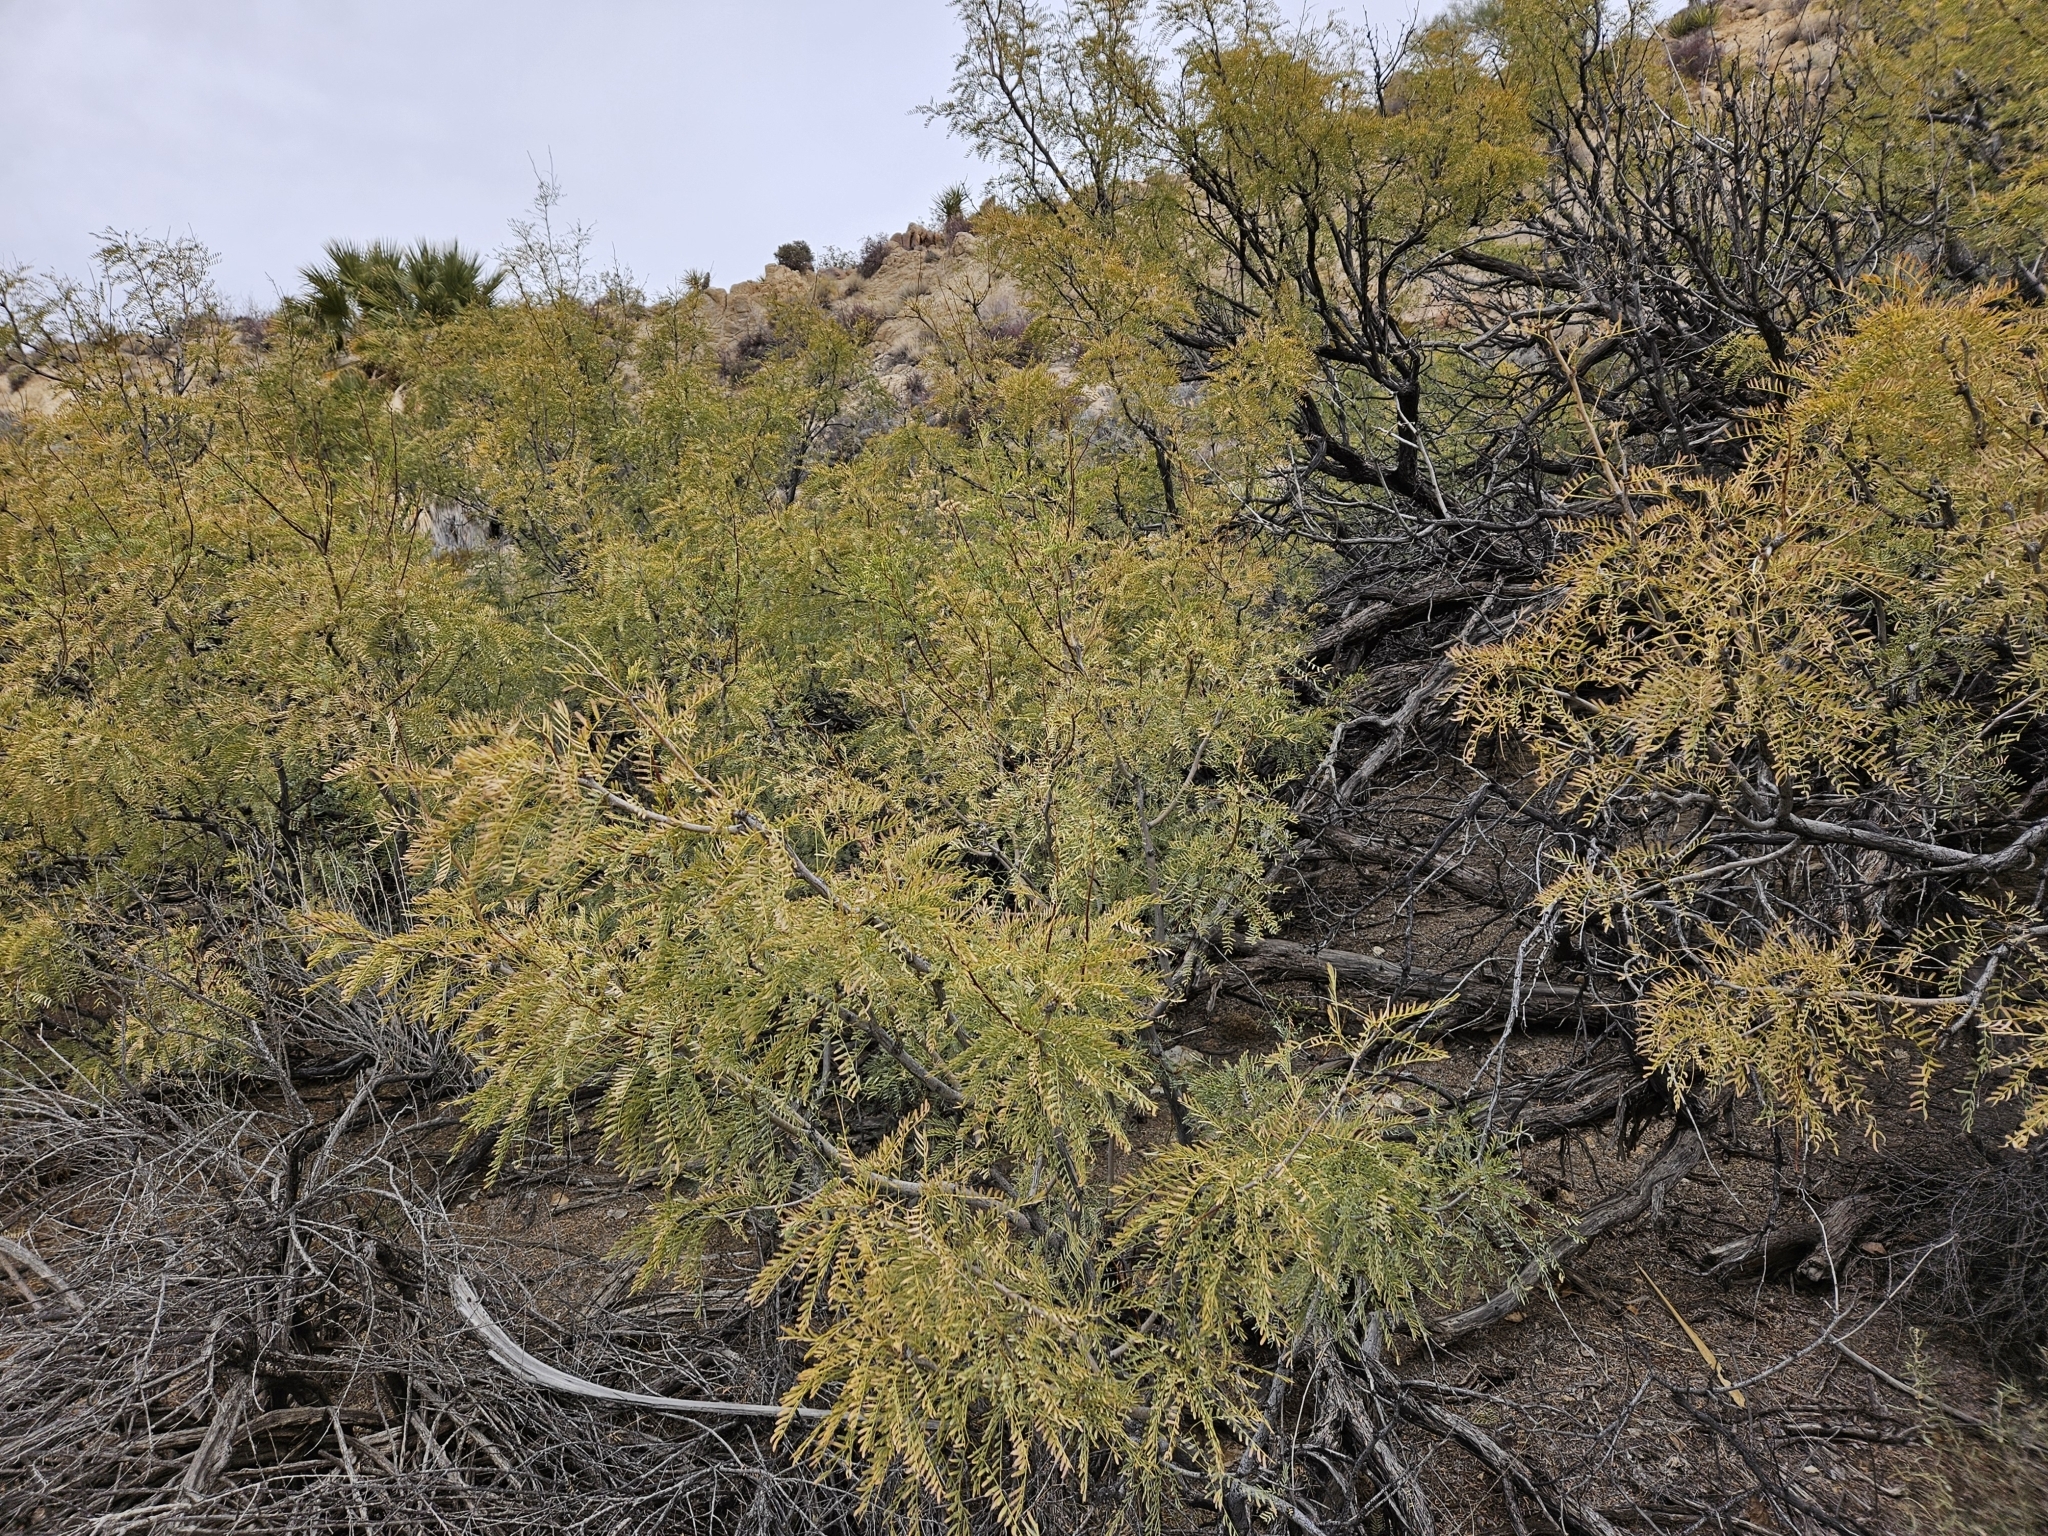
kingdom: Plantae
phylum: Tracheophyta
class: Magnoliopsida
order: Fabales
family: Fabaceae
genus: Prosopis
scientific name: Prosopis pubescens
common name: Screw-bean
